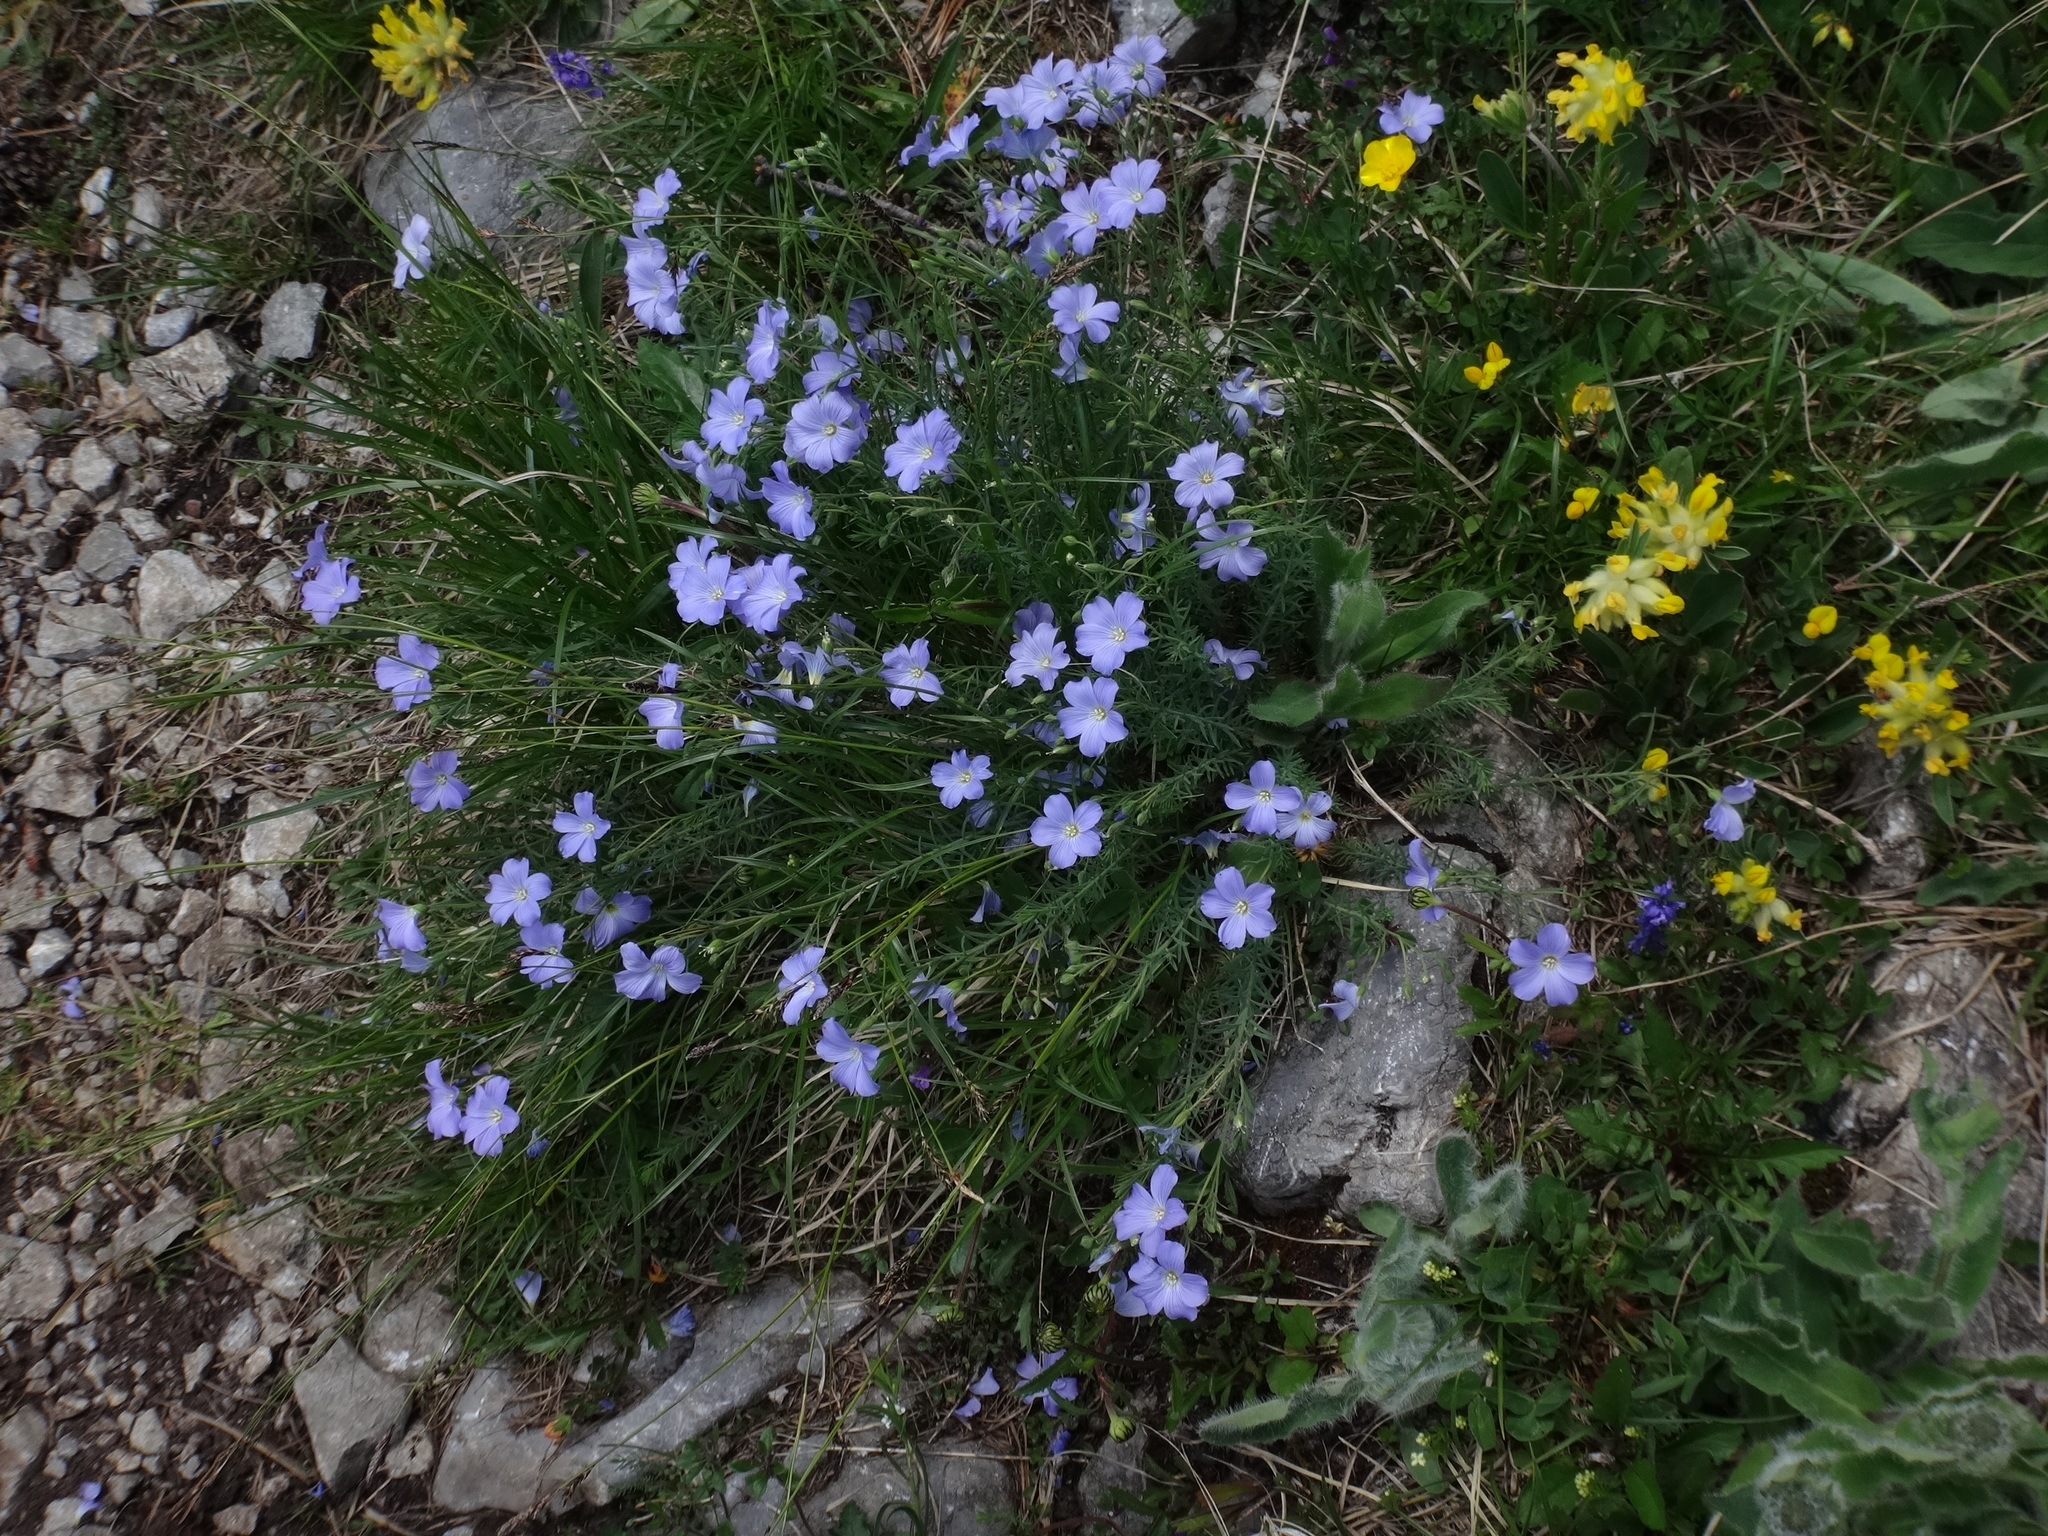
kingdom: Plantae
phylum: Tracheophyta
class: Magnoliopsida
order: Malpighiales
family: Linaceae
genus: Linum
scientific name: Linum alpinum
